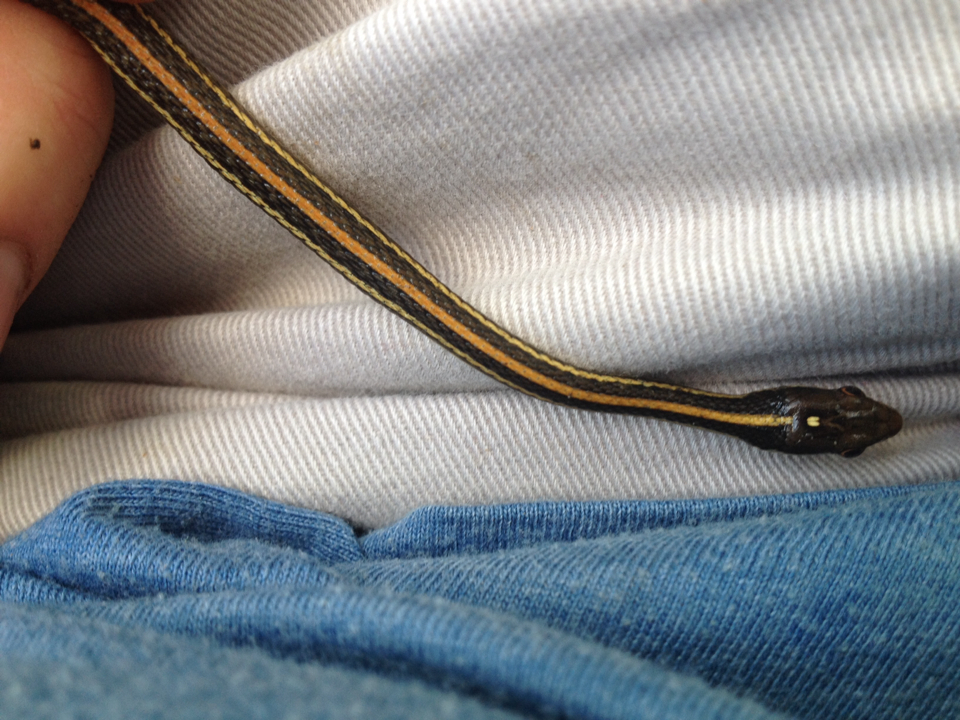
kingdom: Animalia
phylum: Chordata
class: Squamata
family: Colubridae
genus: Thamnophis
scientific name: Thamnophis proximus
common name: Western ribbon snake
